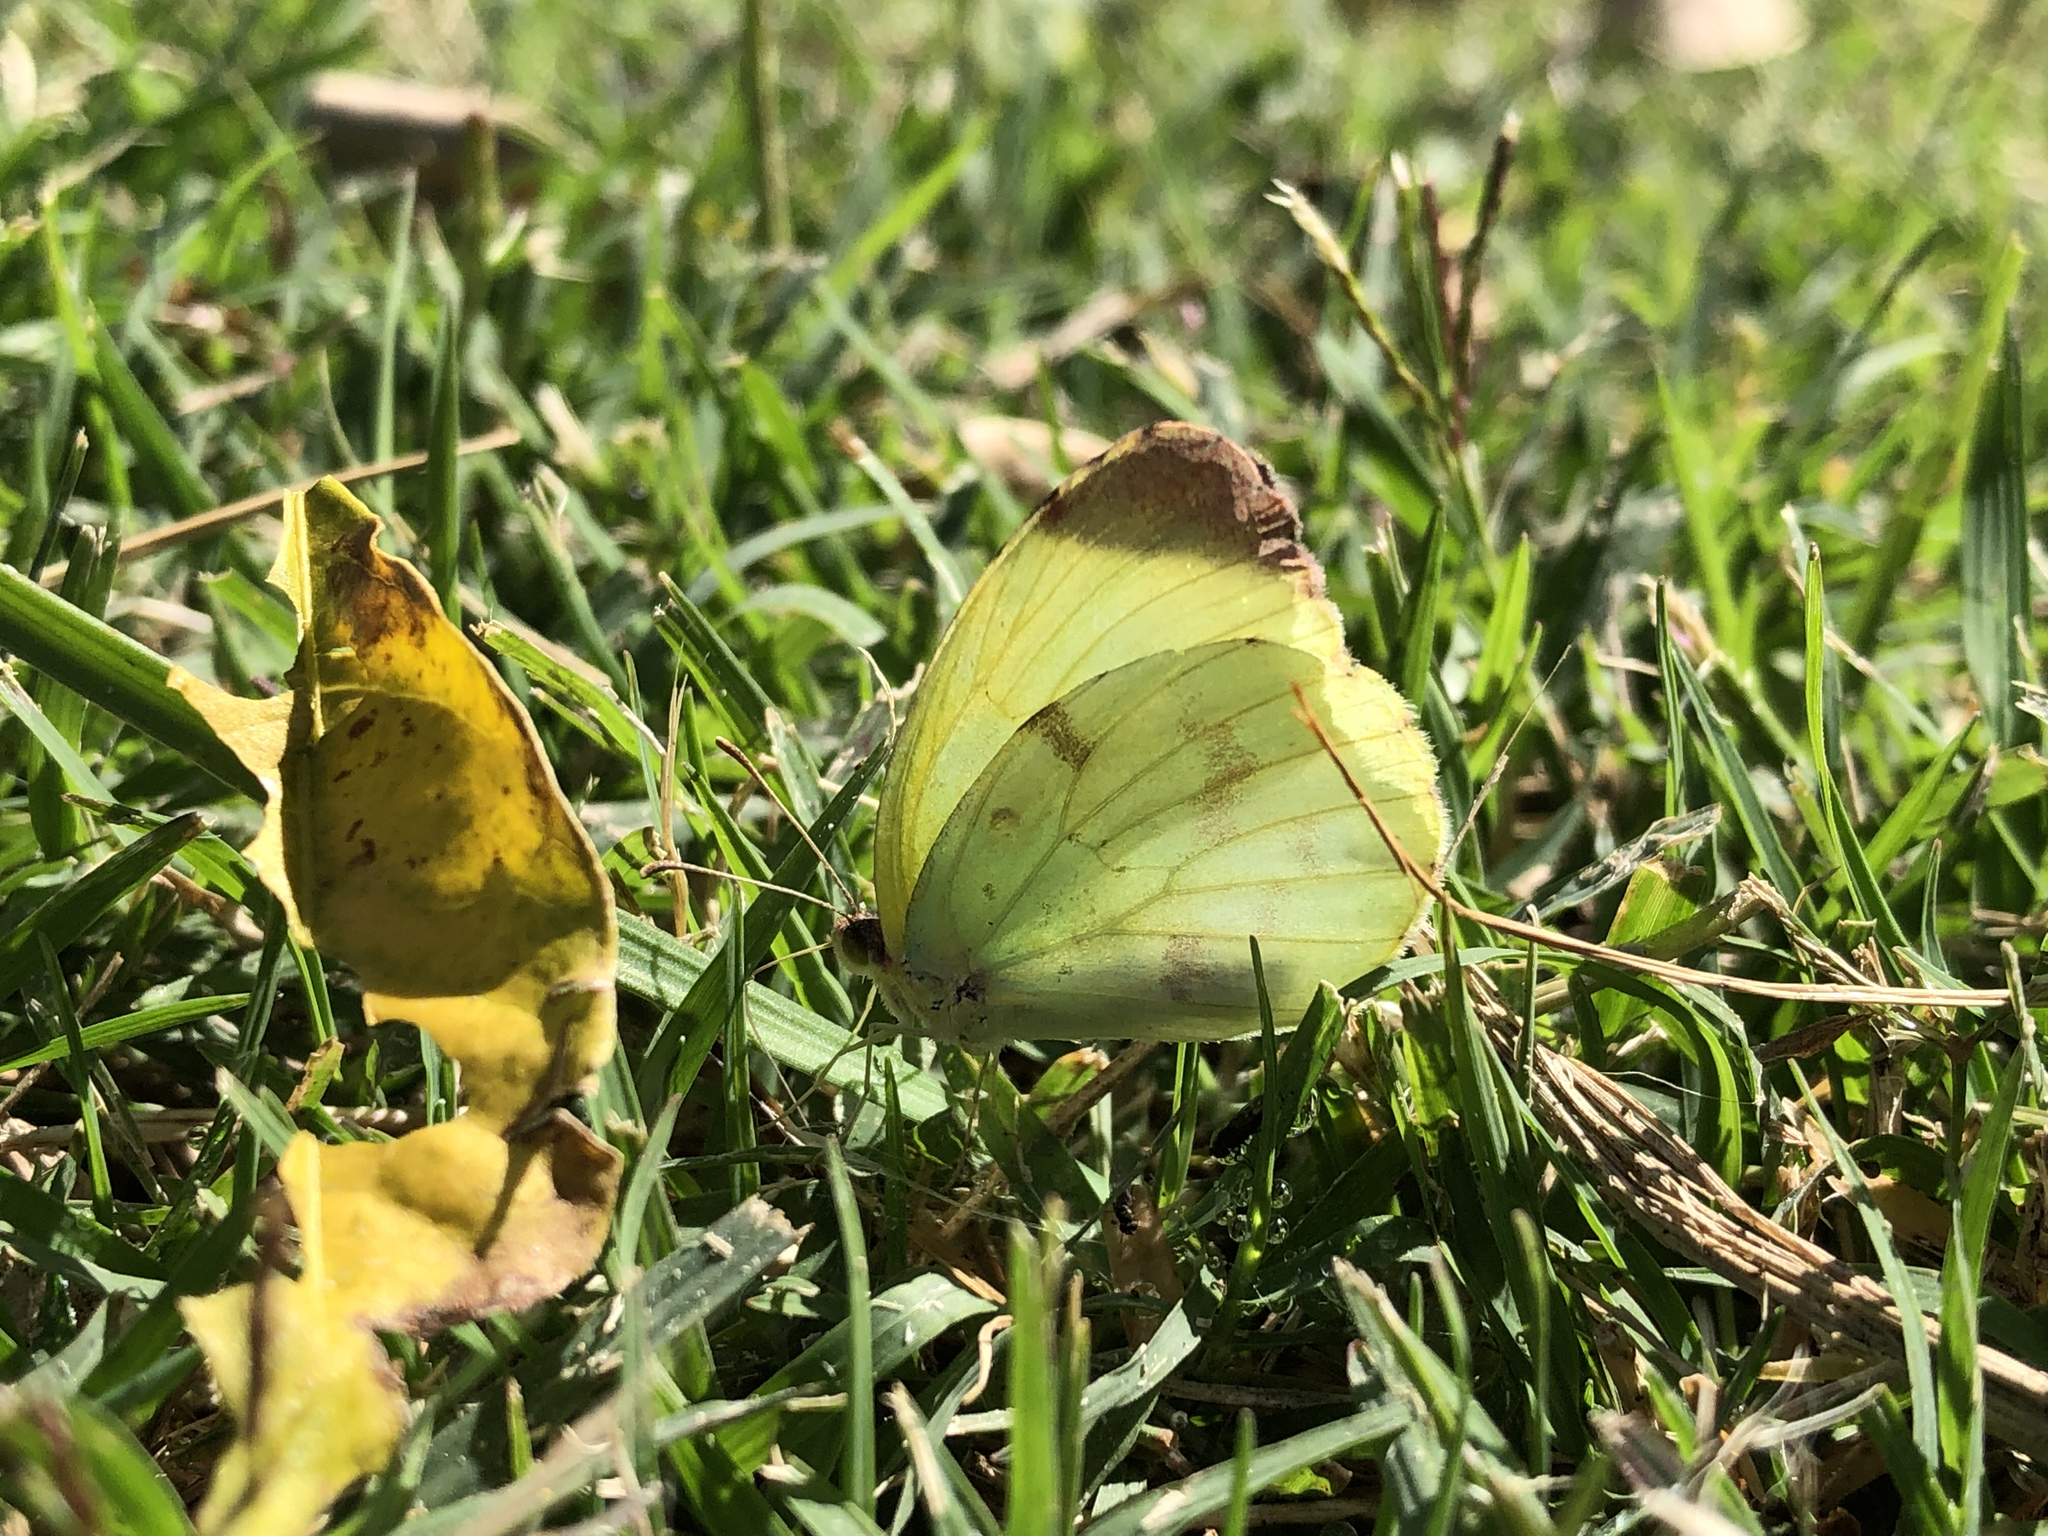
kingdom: Animalia
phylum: Arthropoda
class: Insecta
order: Lepidoptera
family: Pieridae
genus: Teriocolias
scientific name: Teriocolias
